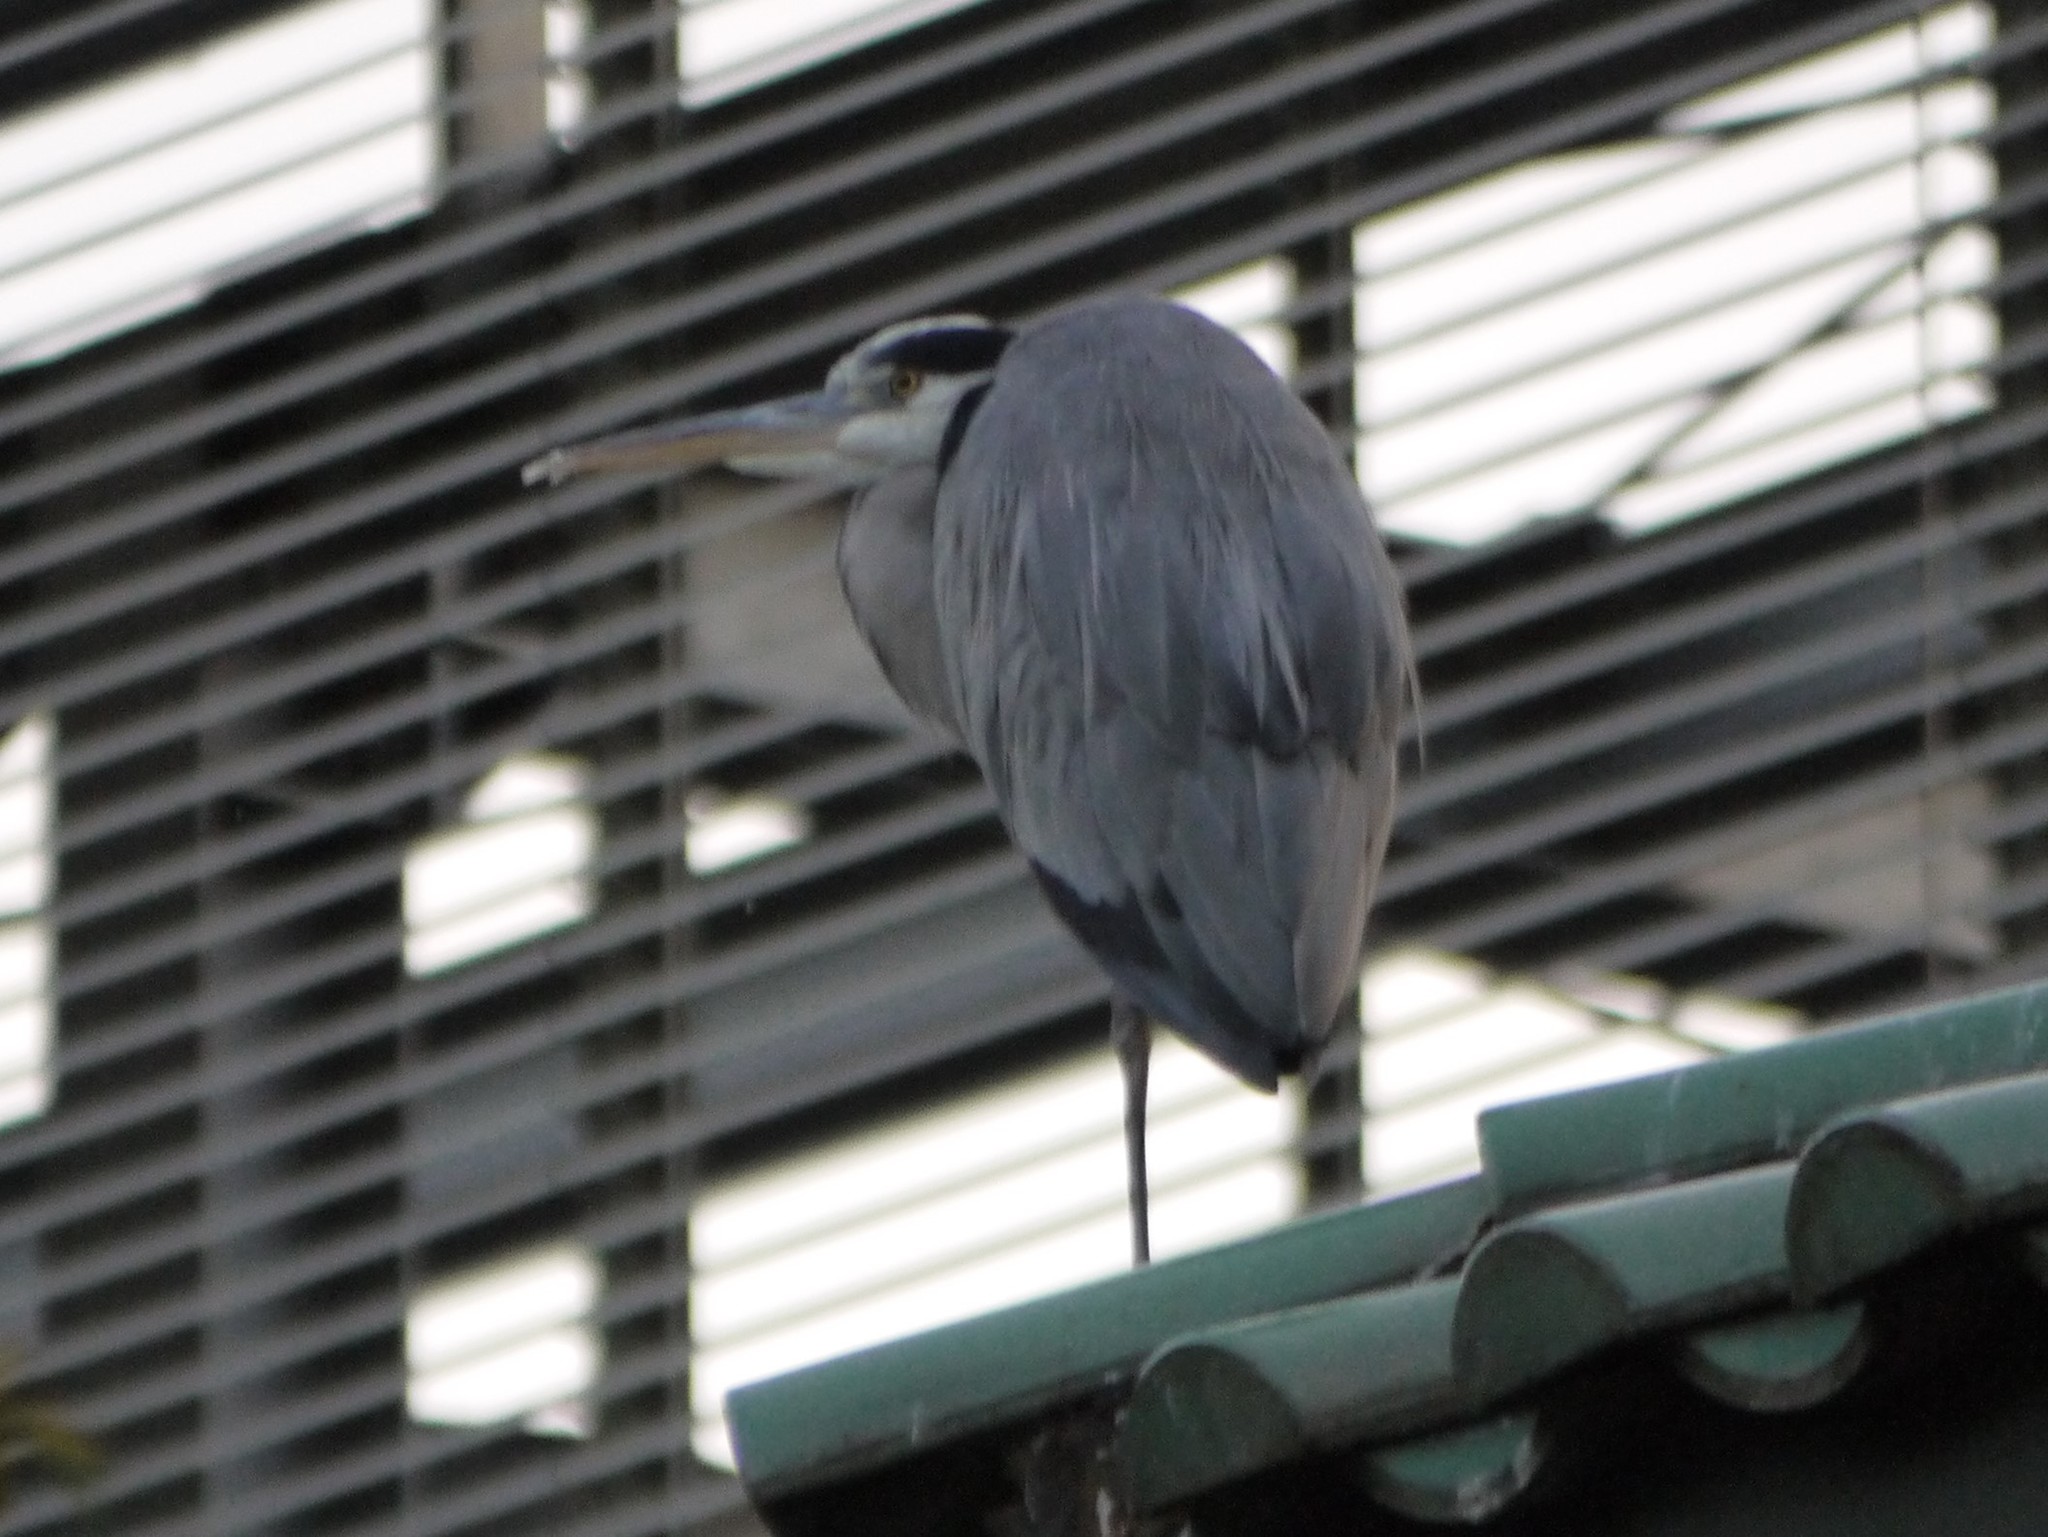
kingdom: Animalia
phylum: Chordata
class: Aves
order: Pelecaniformes
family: Ardeidae
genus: Ardea
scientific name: Ardea cinerea
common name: Grey heron
